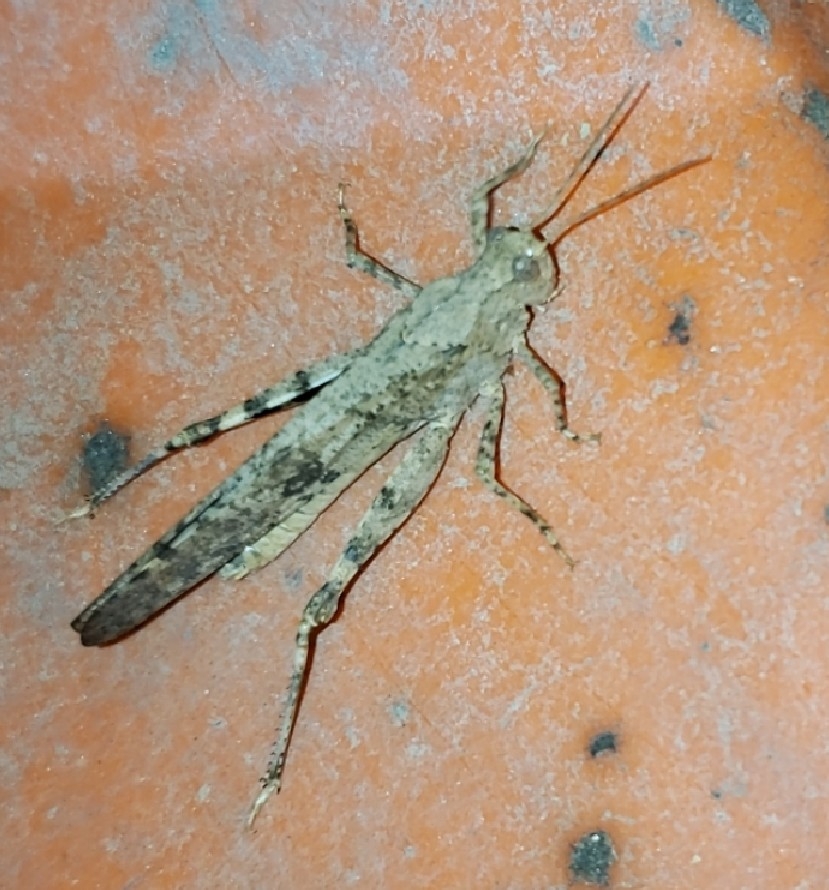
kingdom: Animalia
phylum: Arthropoda
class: Insecta
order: Orthoptera
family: Acrididae
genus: Dissosteira
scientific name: Dissosteira carolina
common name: Carolina grasshopper
